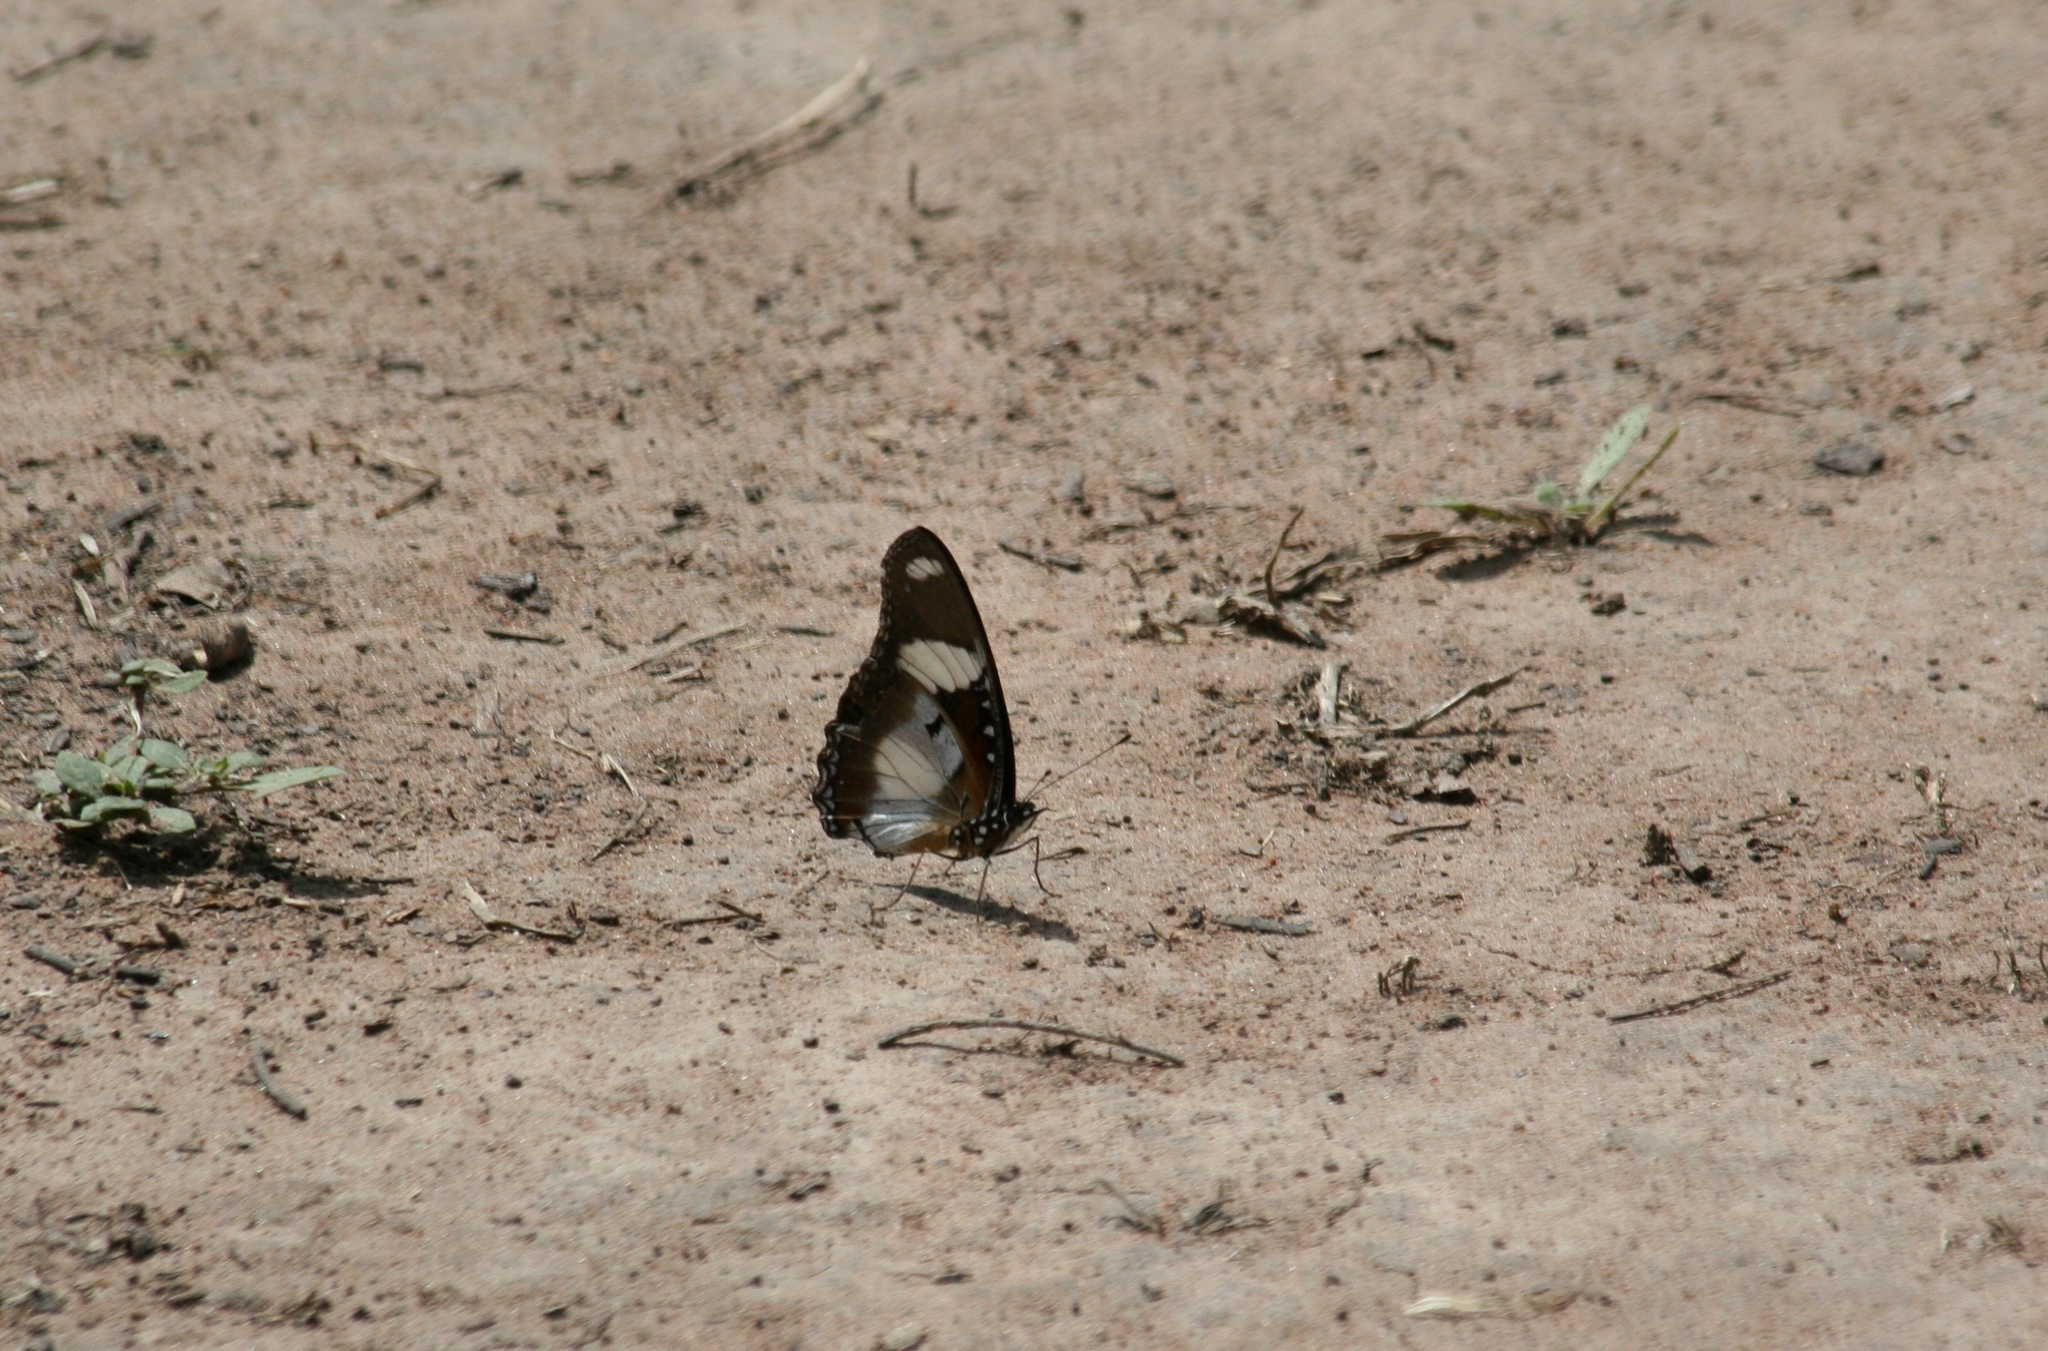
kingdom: Animalia
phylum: Arthropoda
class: Insecta
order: Lepidoptera
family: Nymphalidae
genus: Hypolimnas
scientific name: Hypolimnas misippus
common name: False plain tiger
